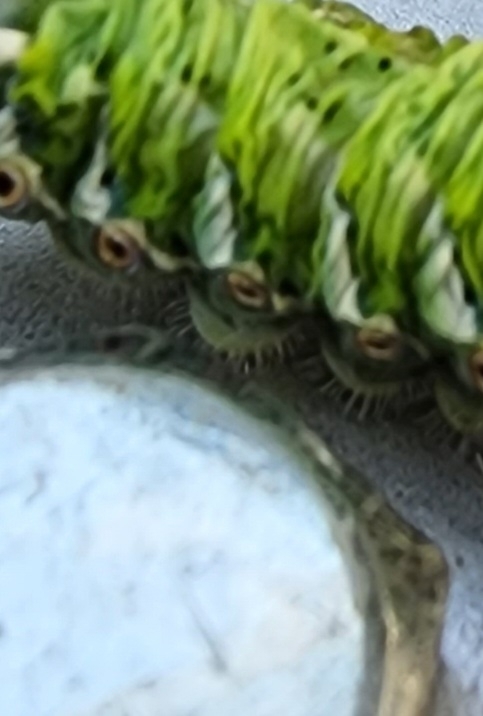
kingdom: Animalia
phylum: Arthropoda
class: Insecta
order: Lepidoptera
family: Sphingidae
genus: Manduca
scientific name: Manduca sexta
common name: Carolina sphinx
